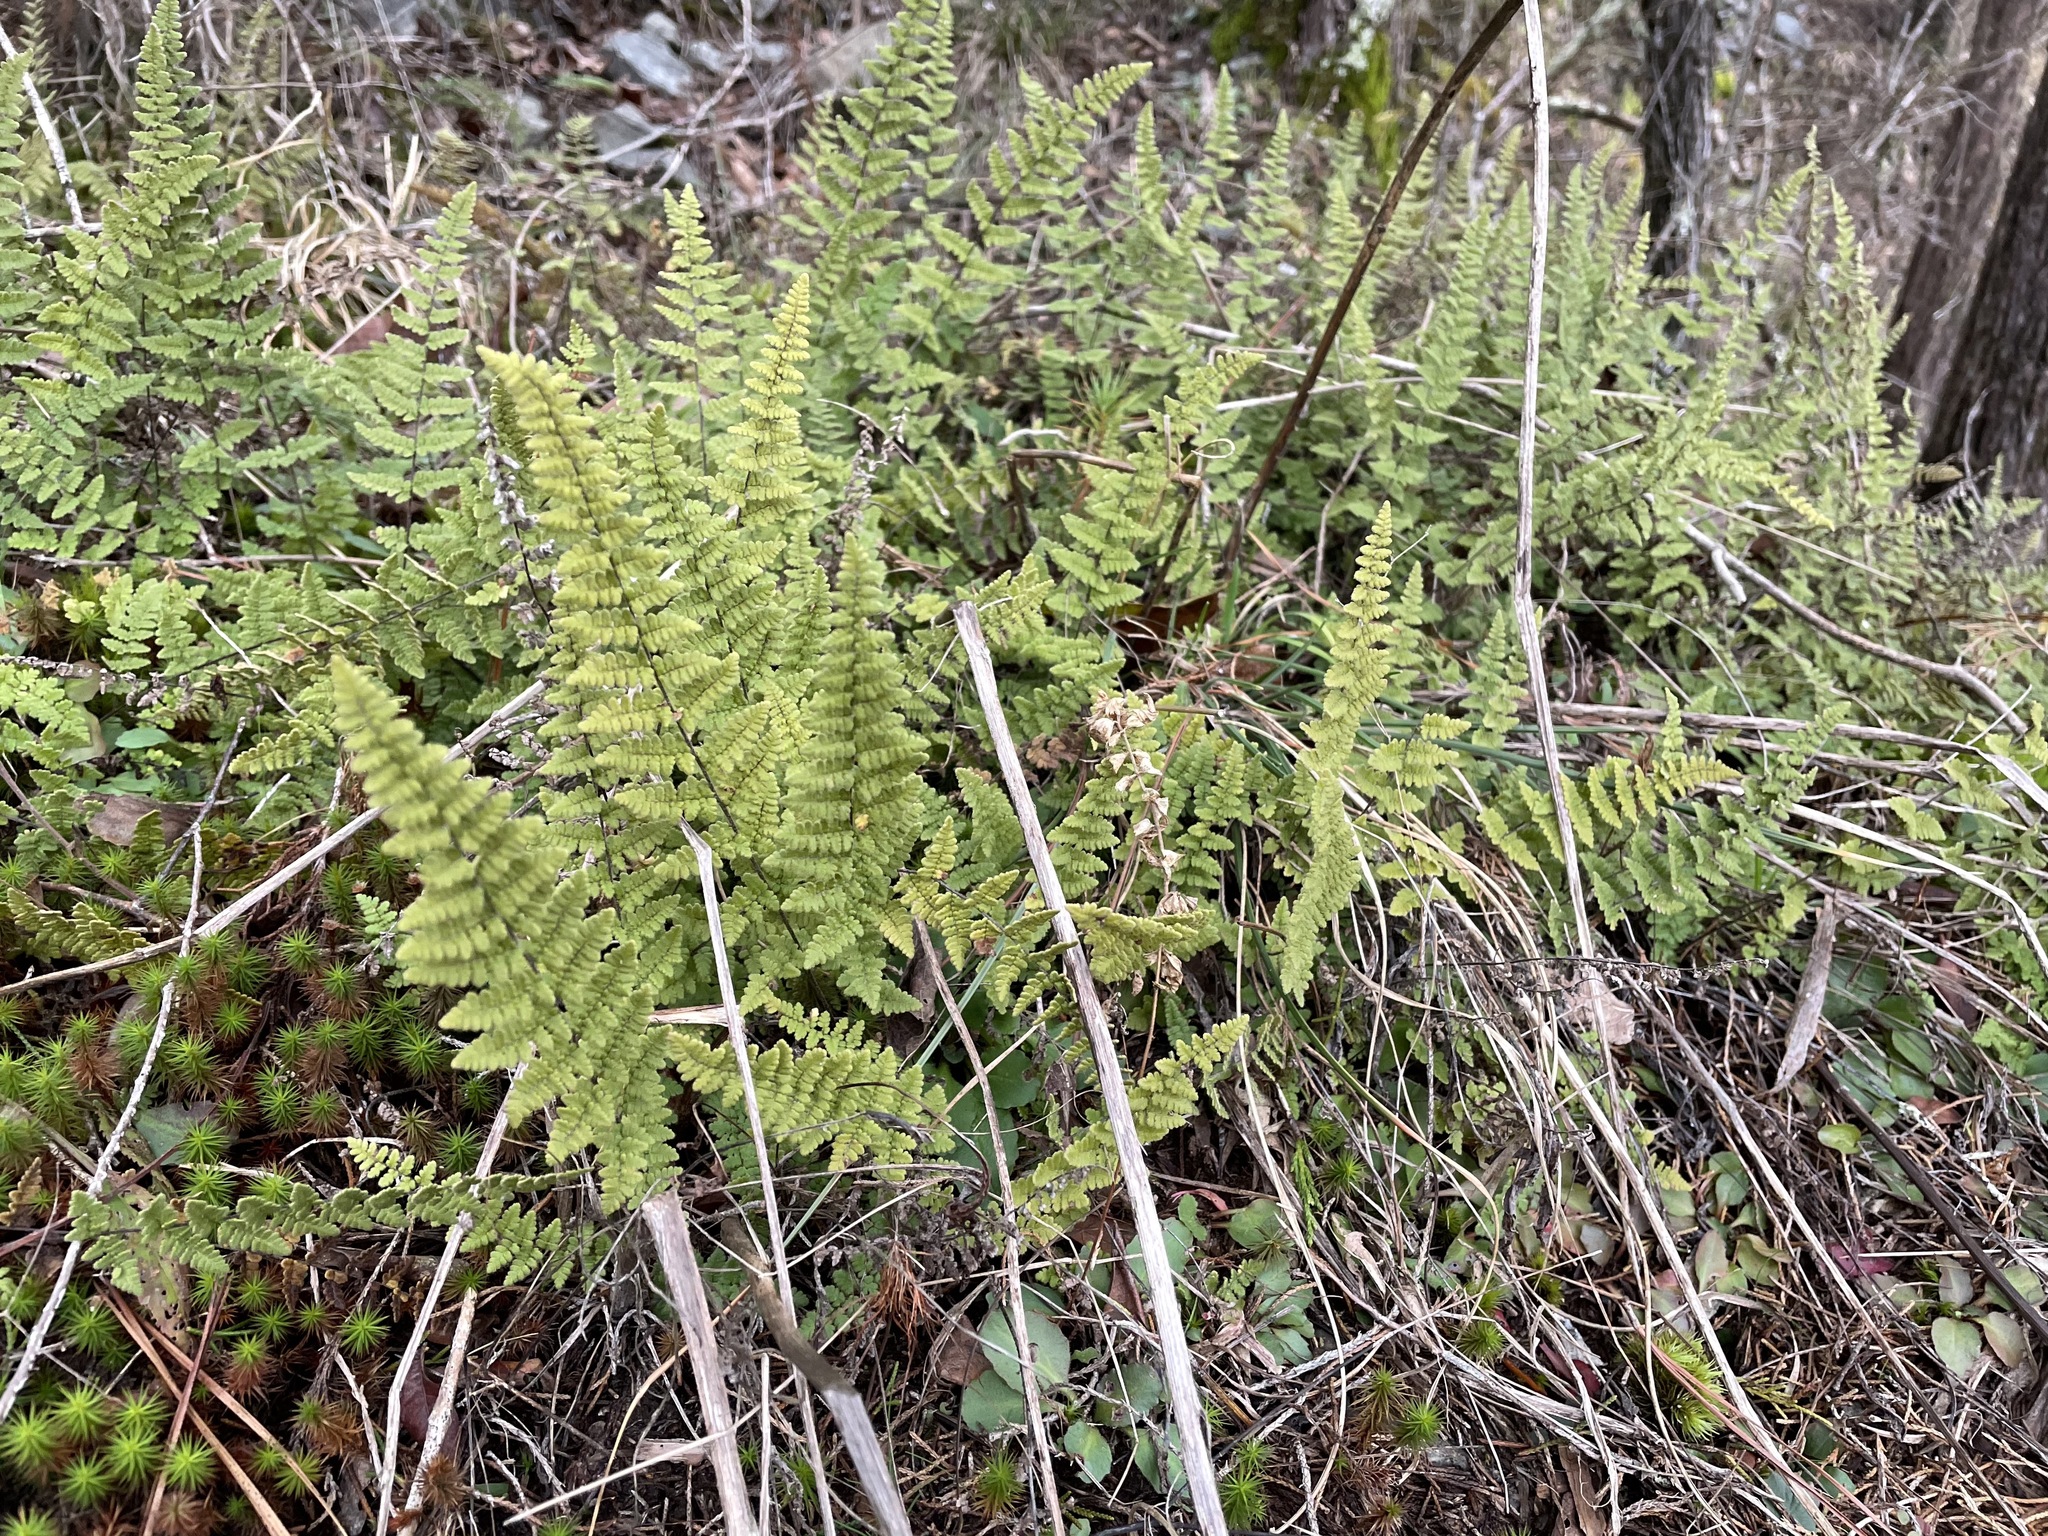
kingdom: Plantae
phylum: Tracheophyta
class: Polypodiopsida
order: Polypodiales
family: Pteridaceae
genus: Myriopteris
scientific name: Myriopteris lanosa
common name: Hairy lip fern
